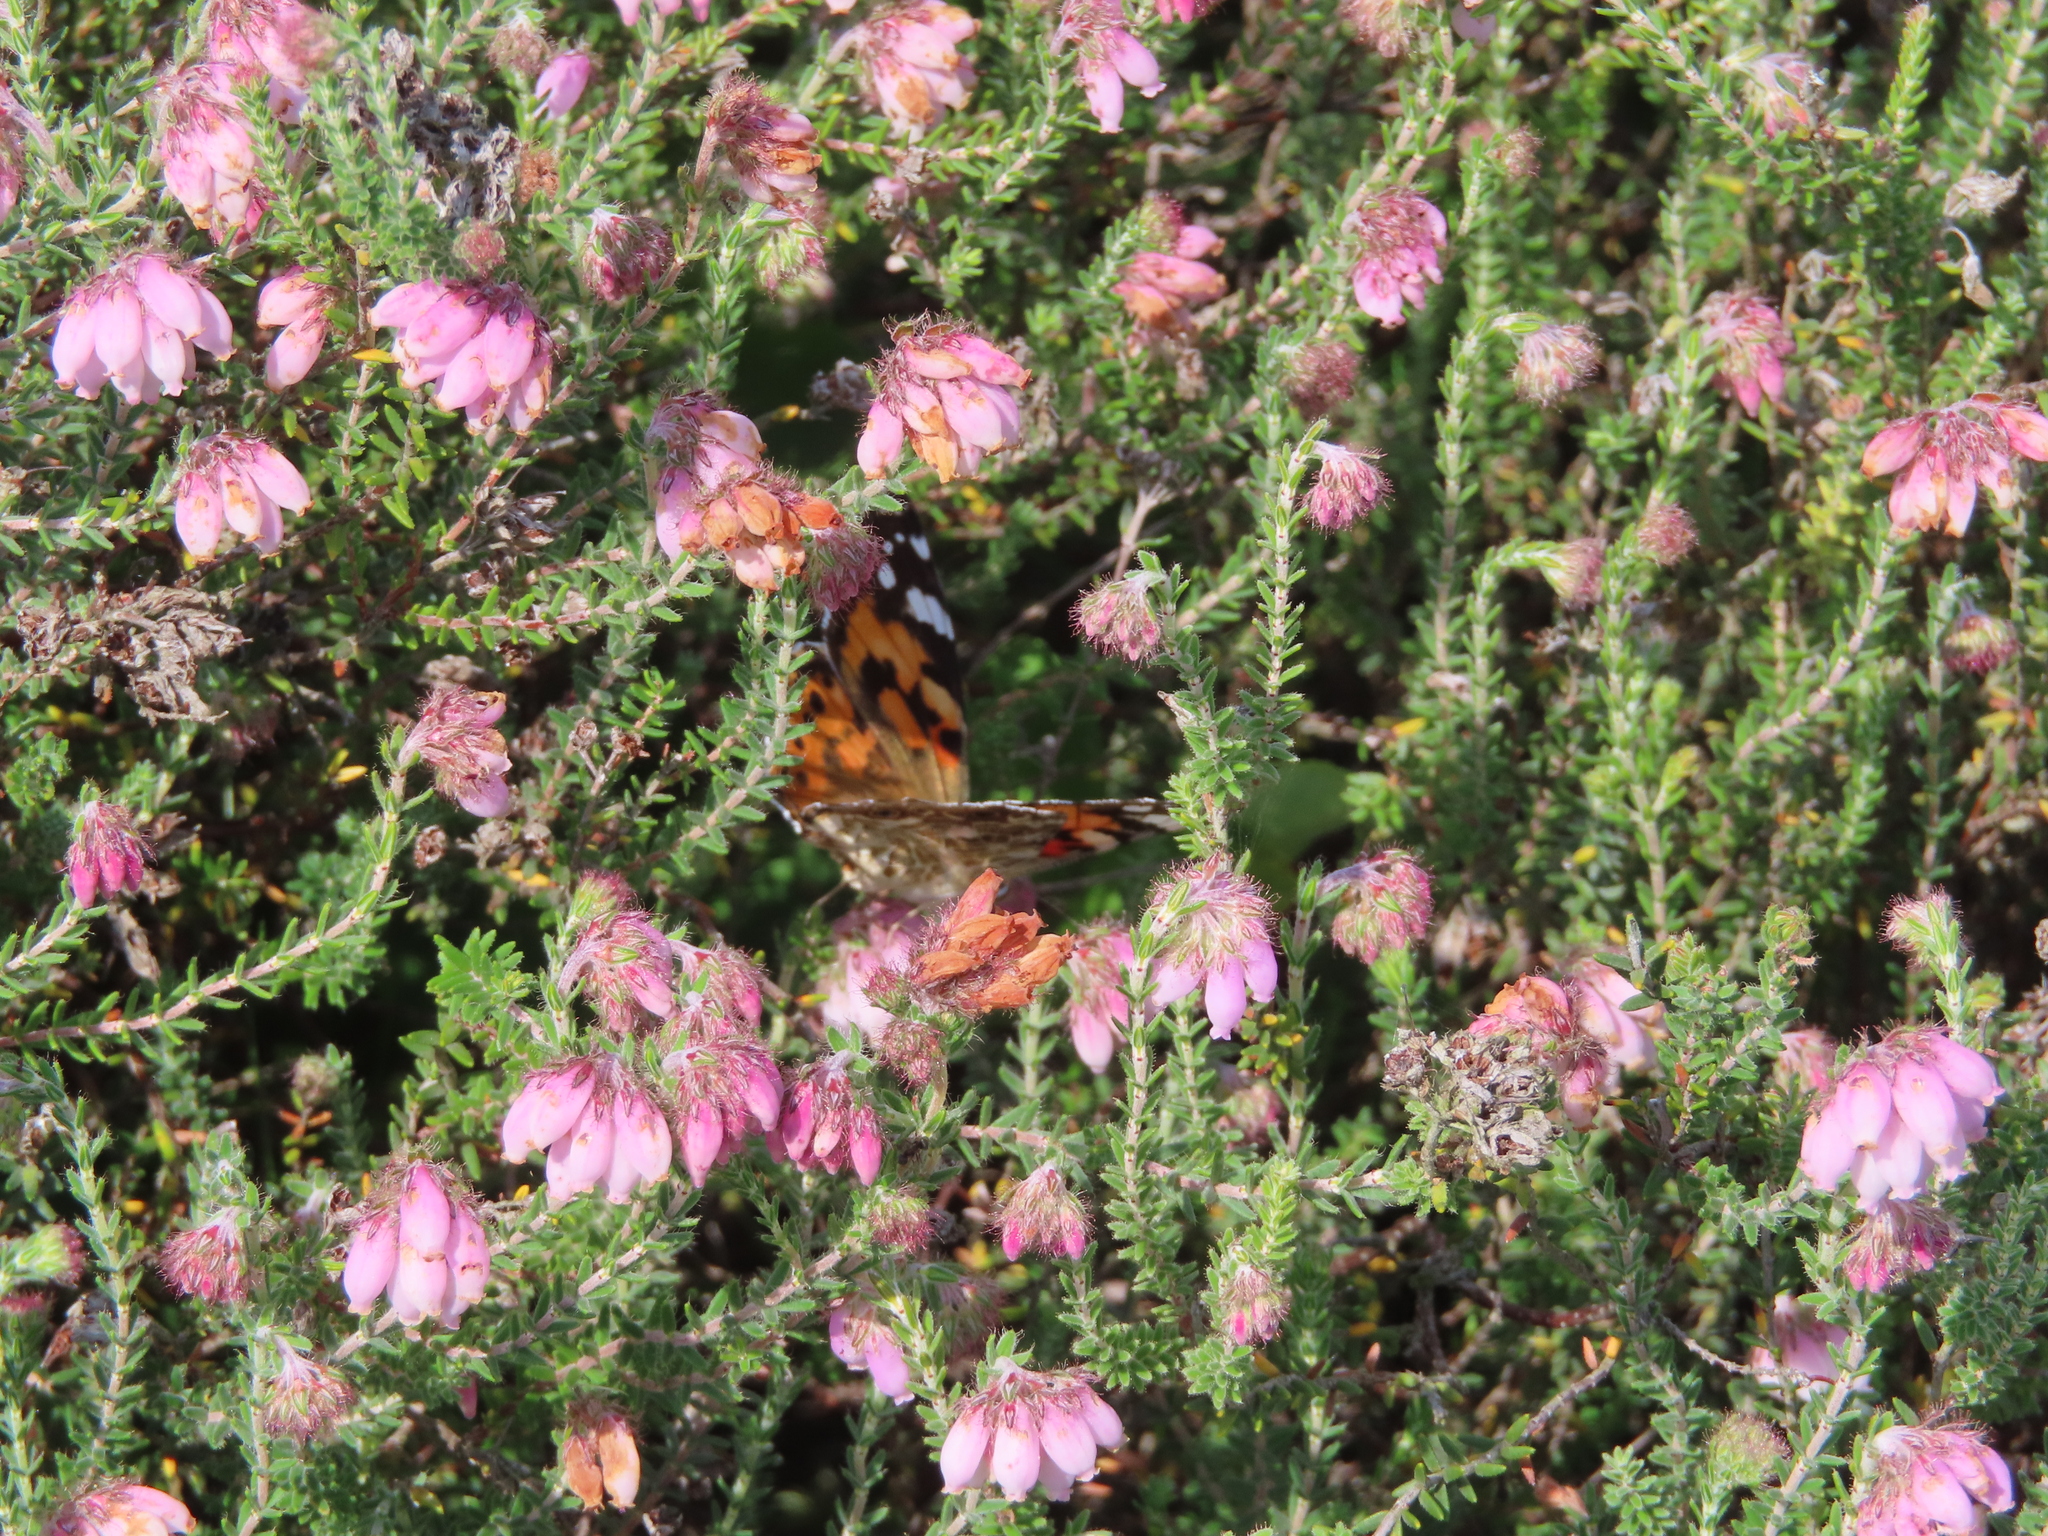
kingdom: Animalia
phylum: Arthropoda
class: Insecta
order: Lepidoptera
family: Nymphalidae
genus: Vanessa
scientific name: Vanessa cardui
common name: Painted lady
